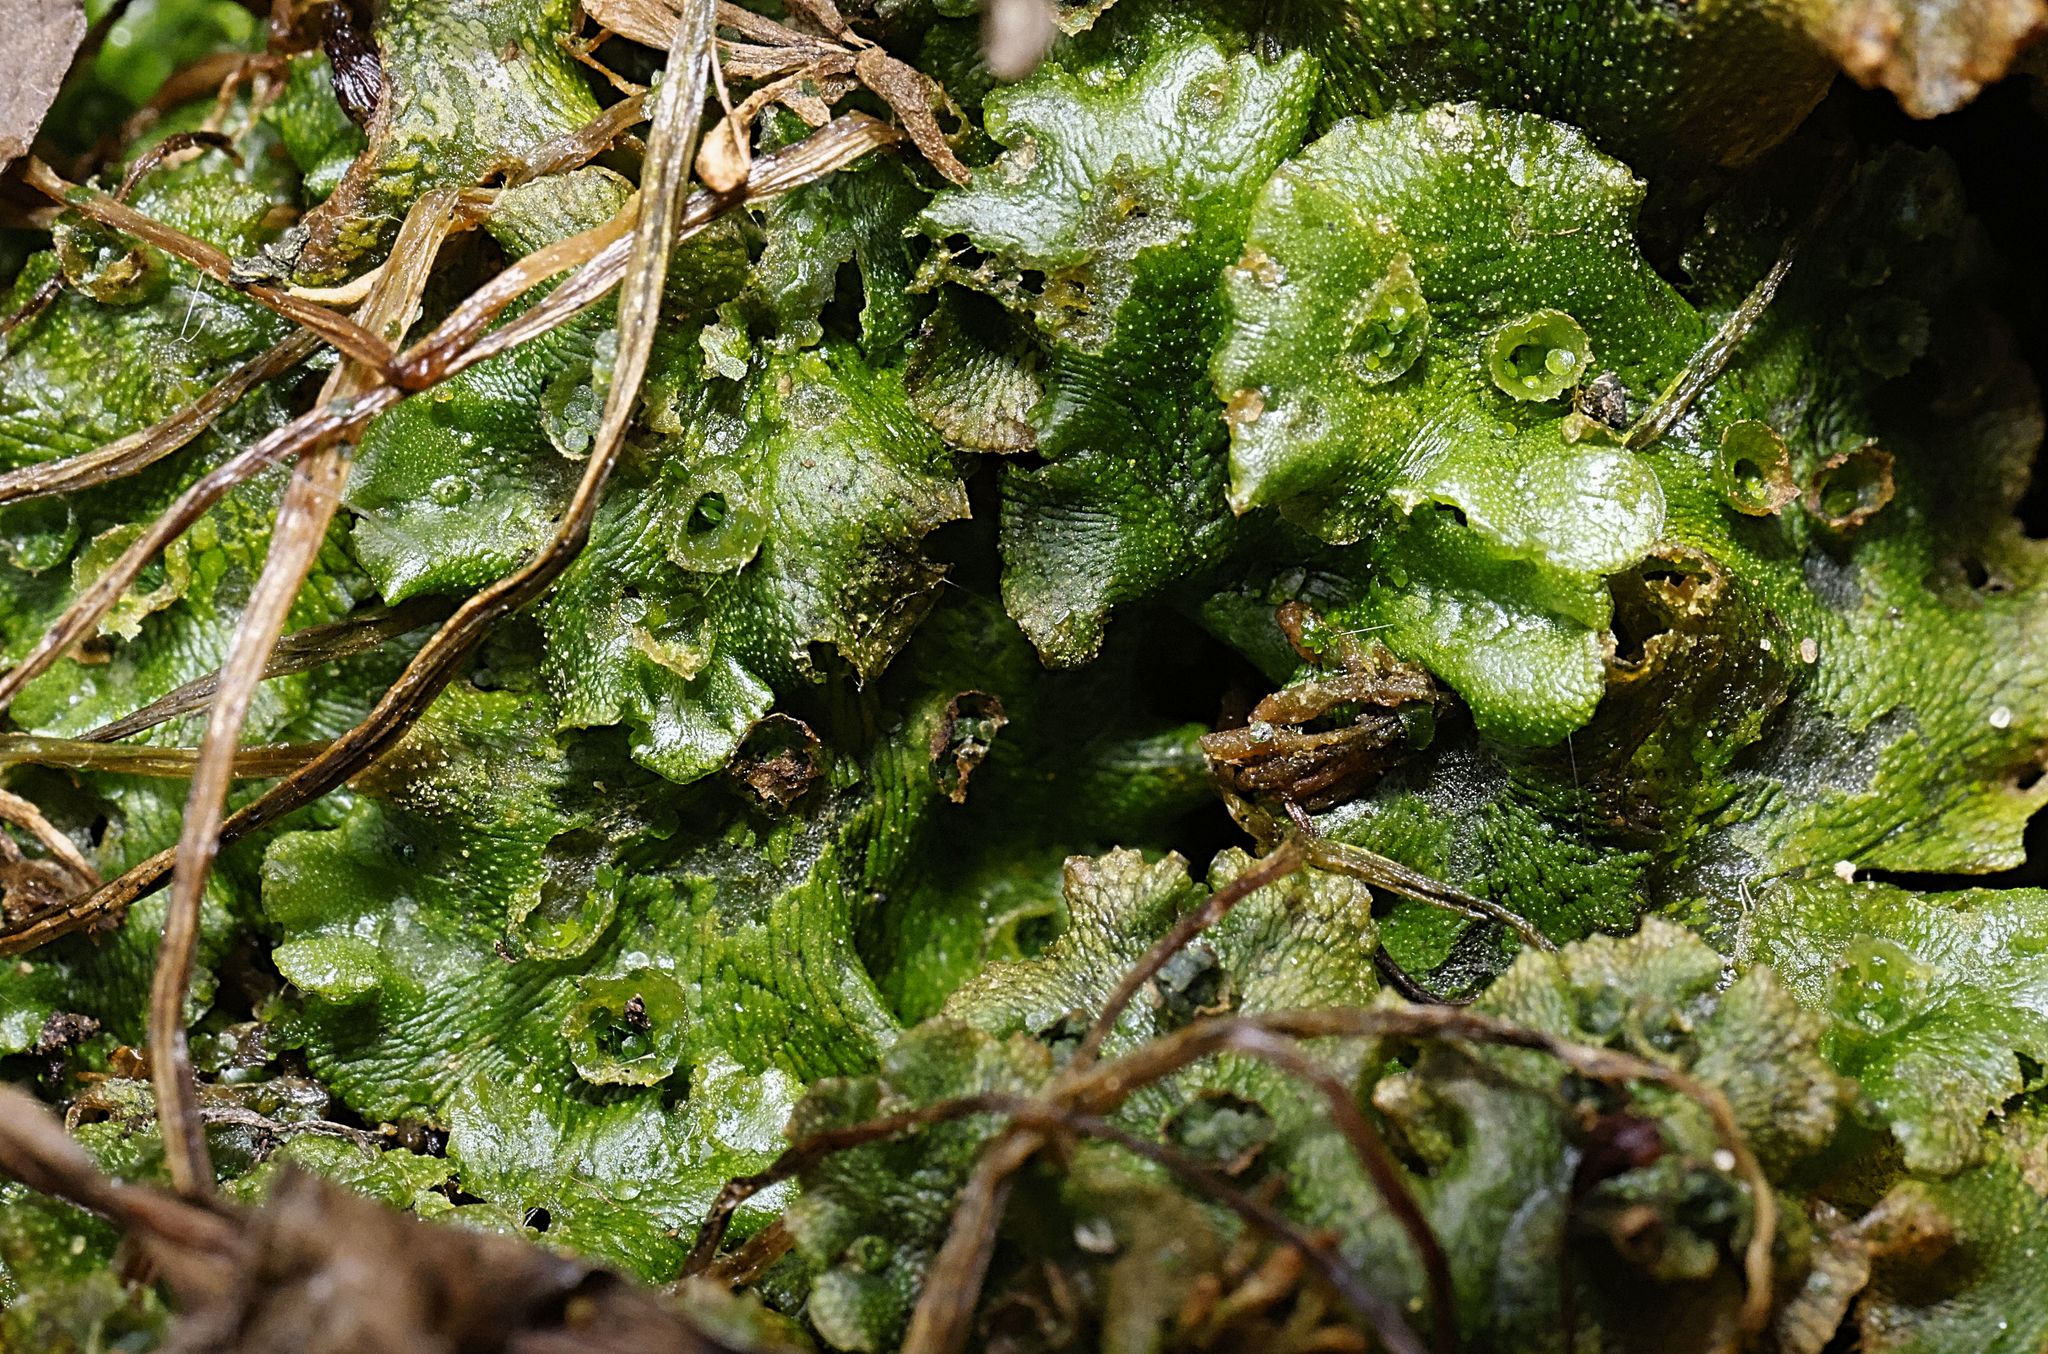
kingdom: Plantae
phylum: Marchantiophyta
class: Marchantiopsida
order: Marchantiales
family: Marchantiaceae
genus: Marchantia
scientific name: Marchantia polymorpha
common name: Common liverwort
